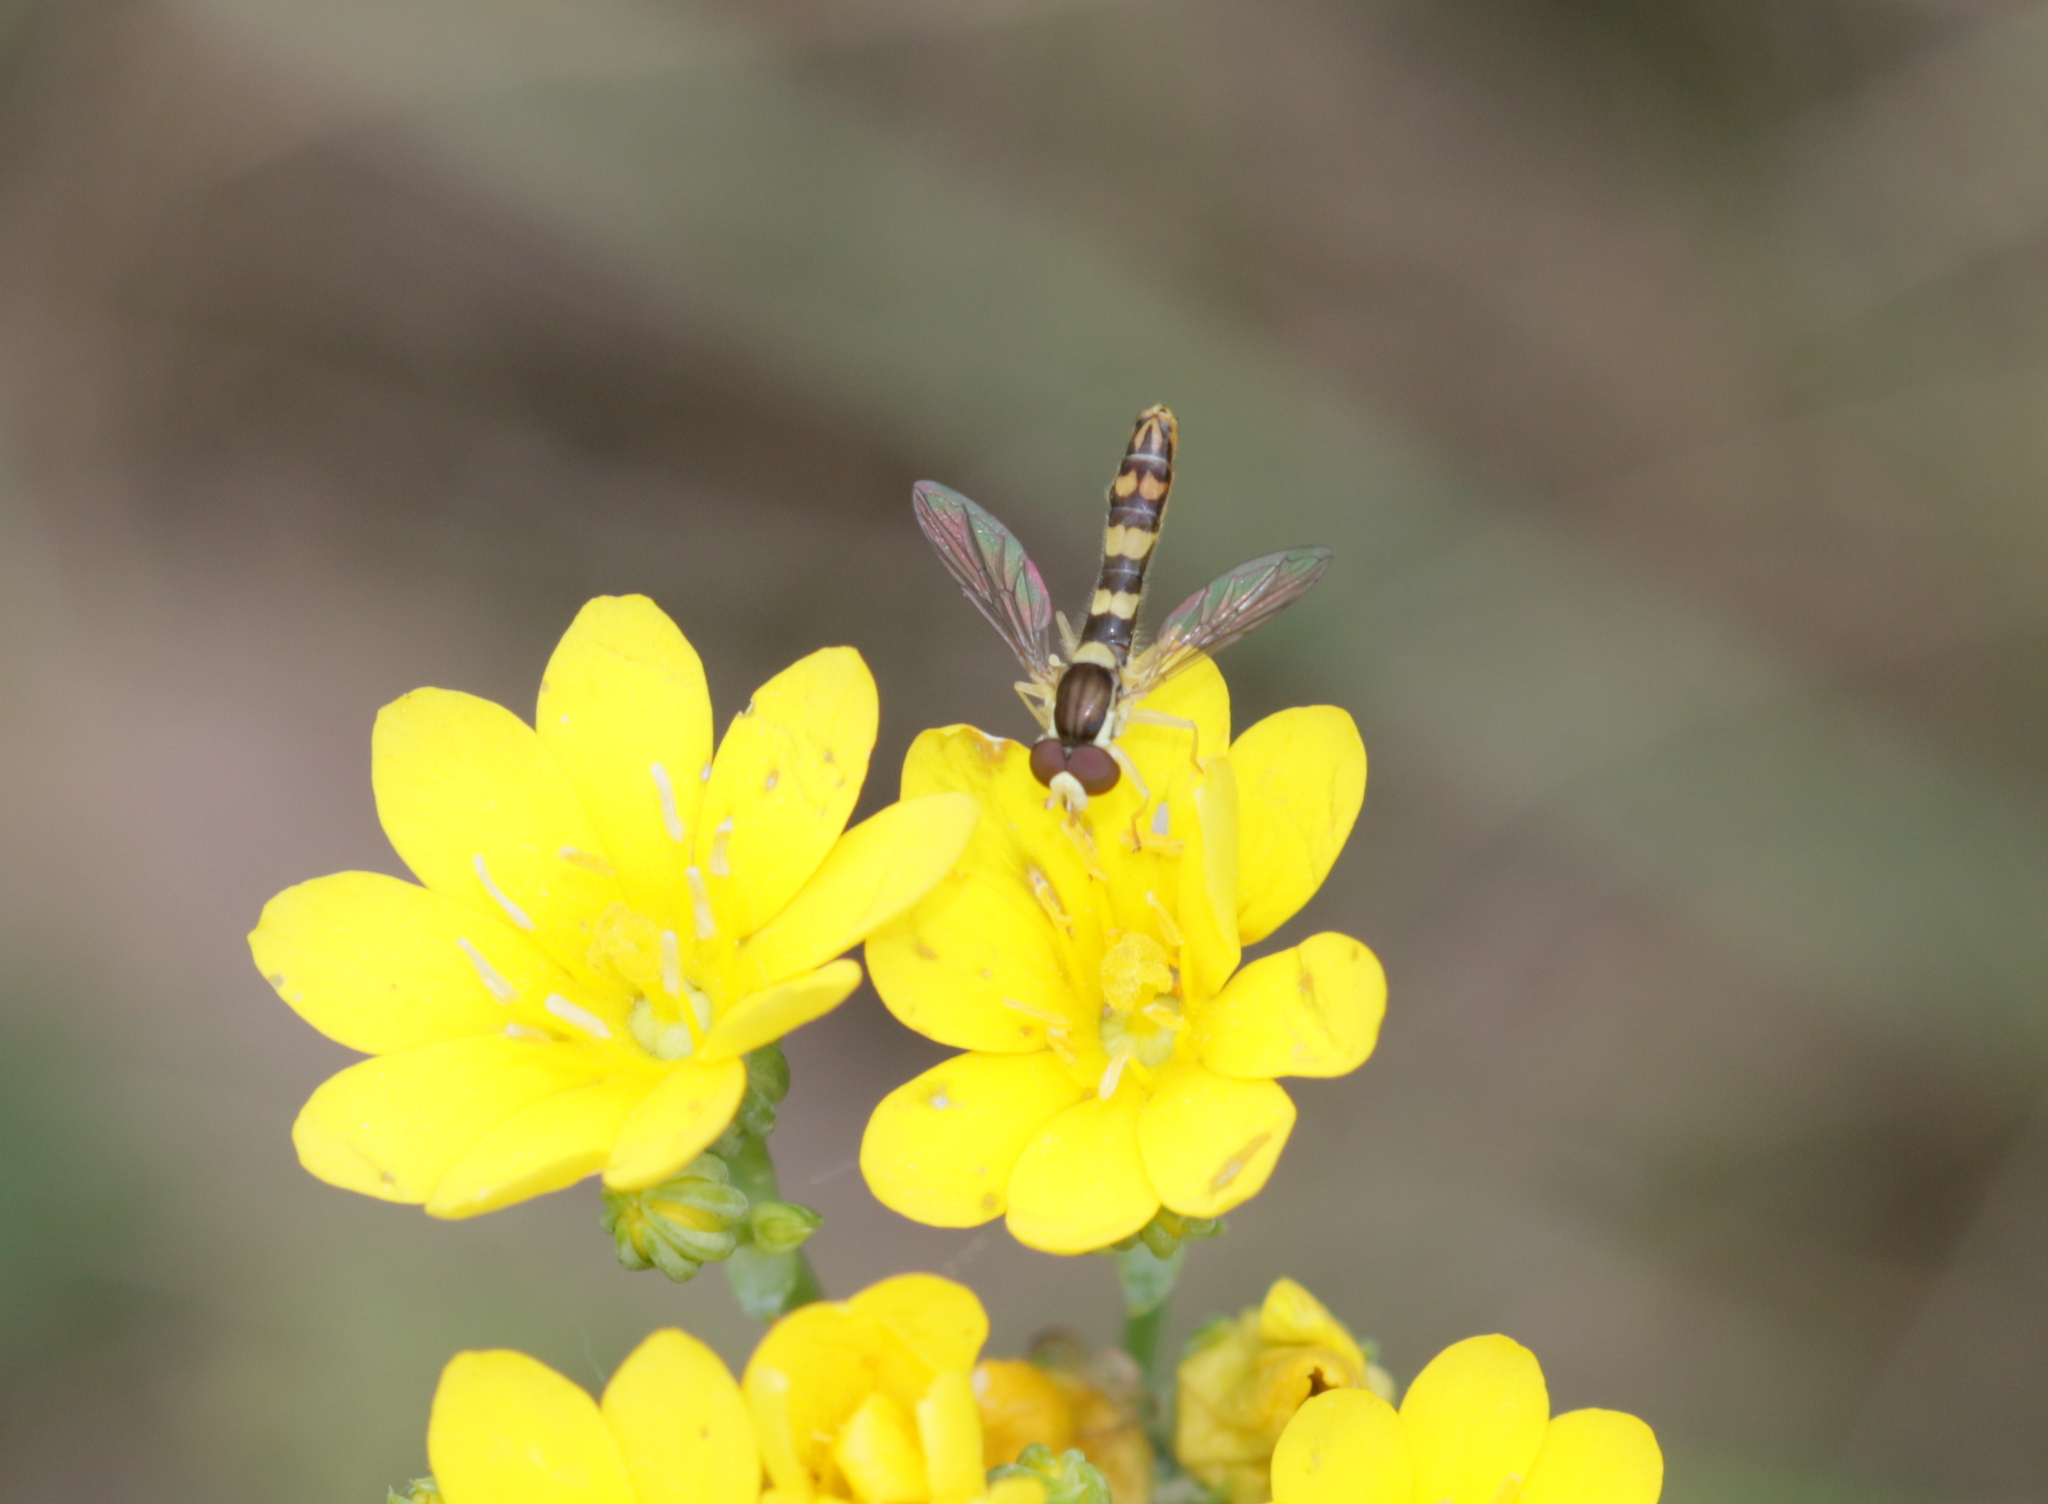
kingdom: Animalia
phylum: Arthropoda
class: Insecta
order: Diptera
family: Syrphidae
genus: Sphaerophoria
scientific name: Sphaerophoria scripta
